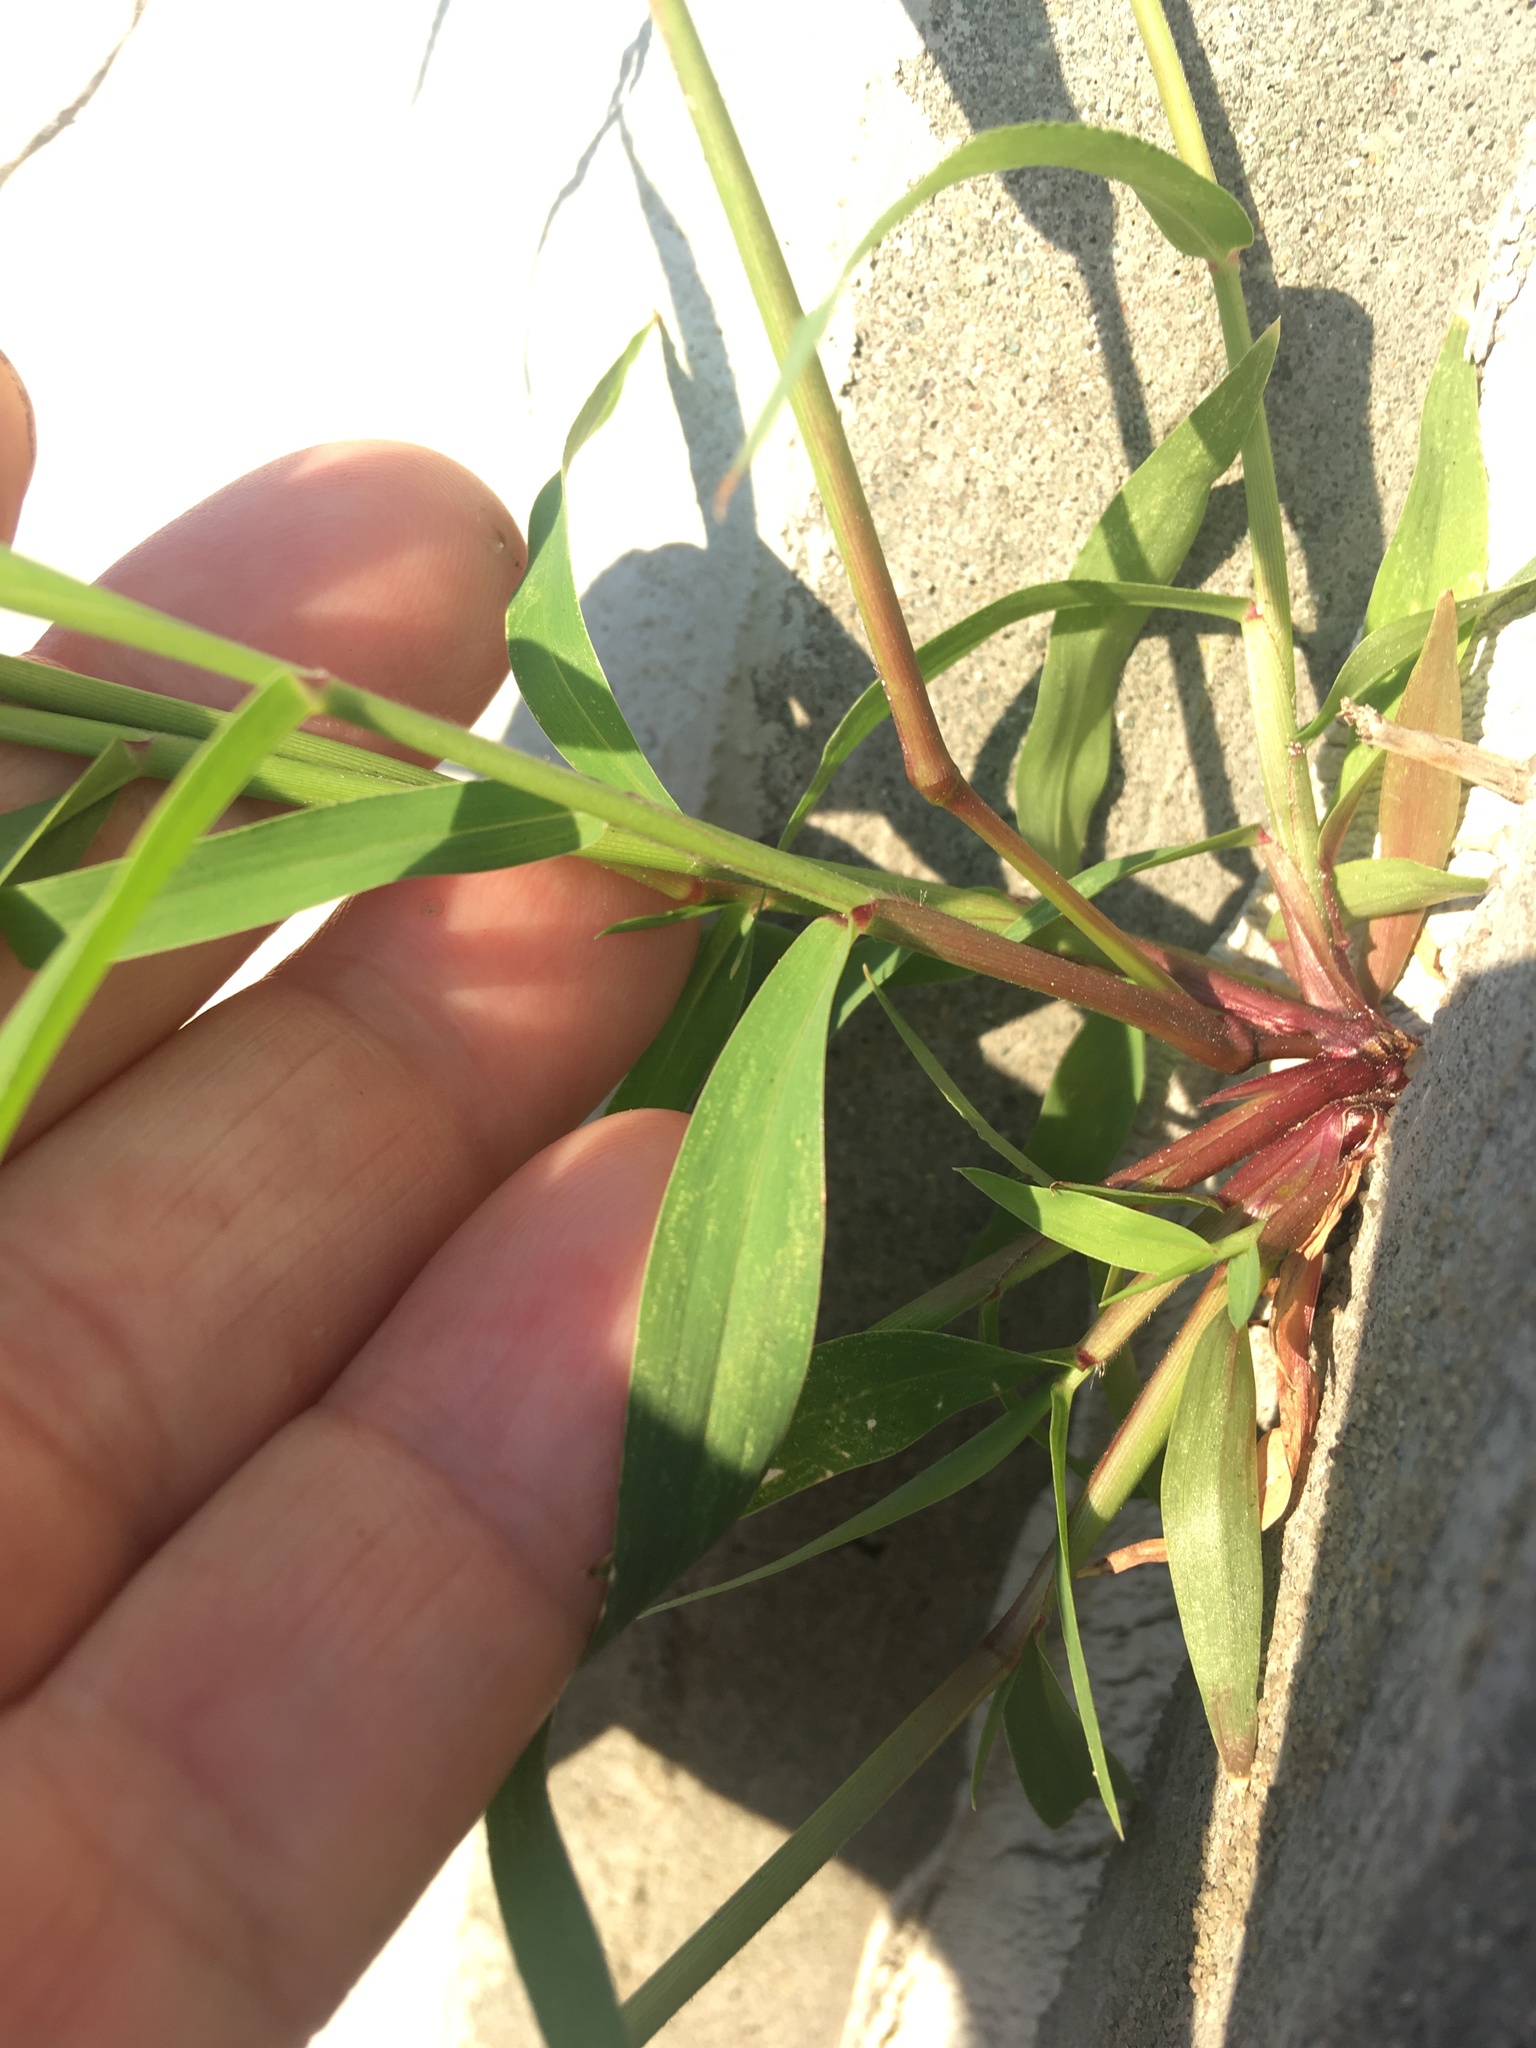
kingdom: Plantae
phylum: Tracheophyta
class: Liliopsida
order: Poales
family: Poaceae
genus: Setaria
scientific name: Setaria viridis
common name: Green bristlegrass
